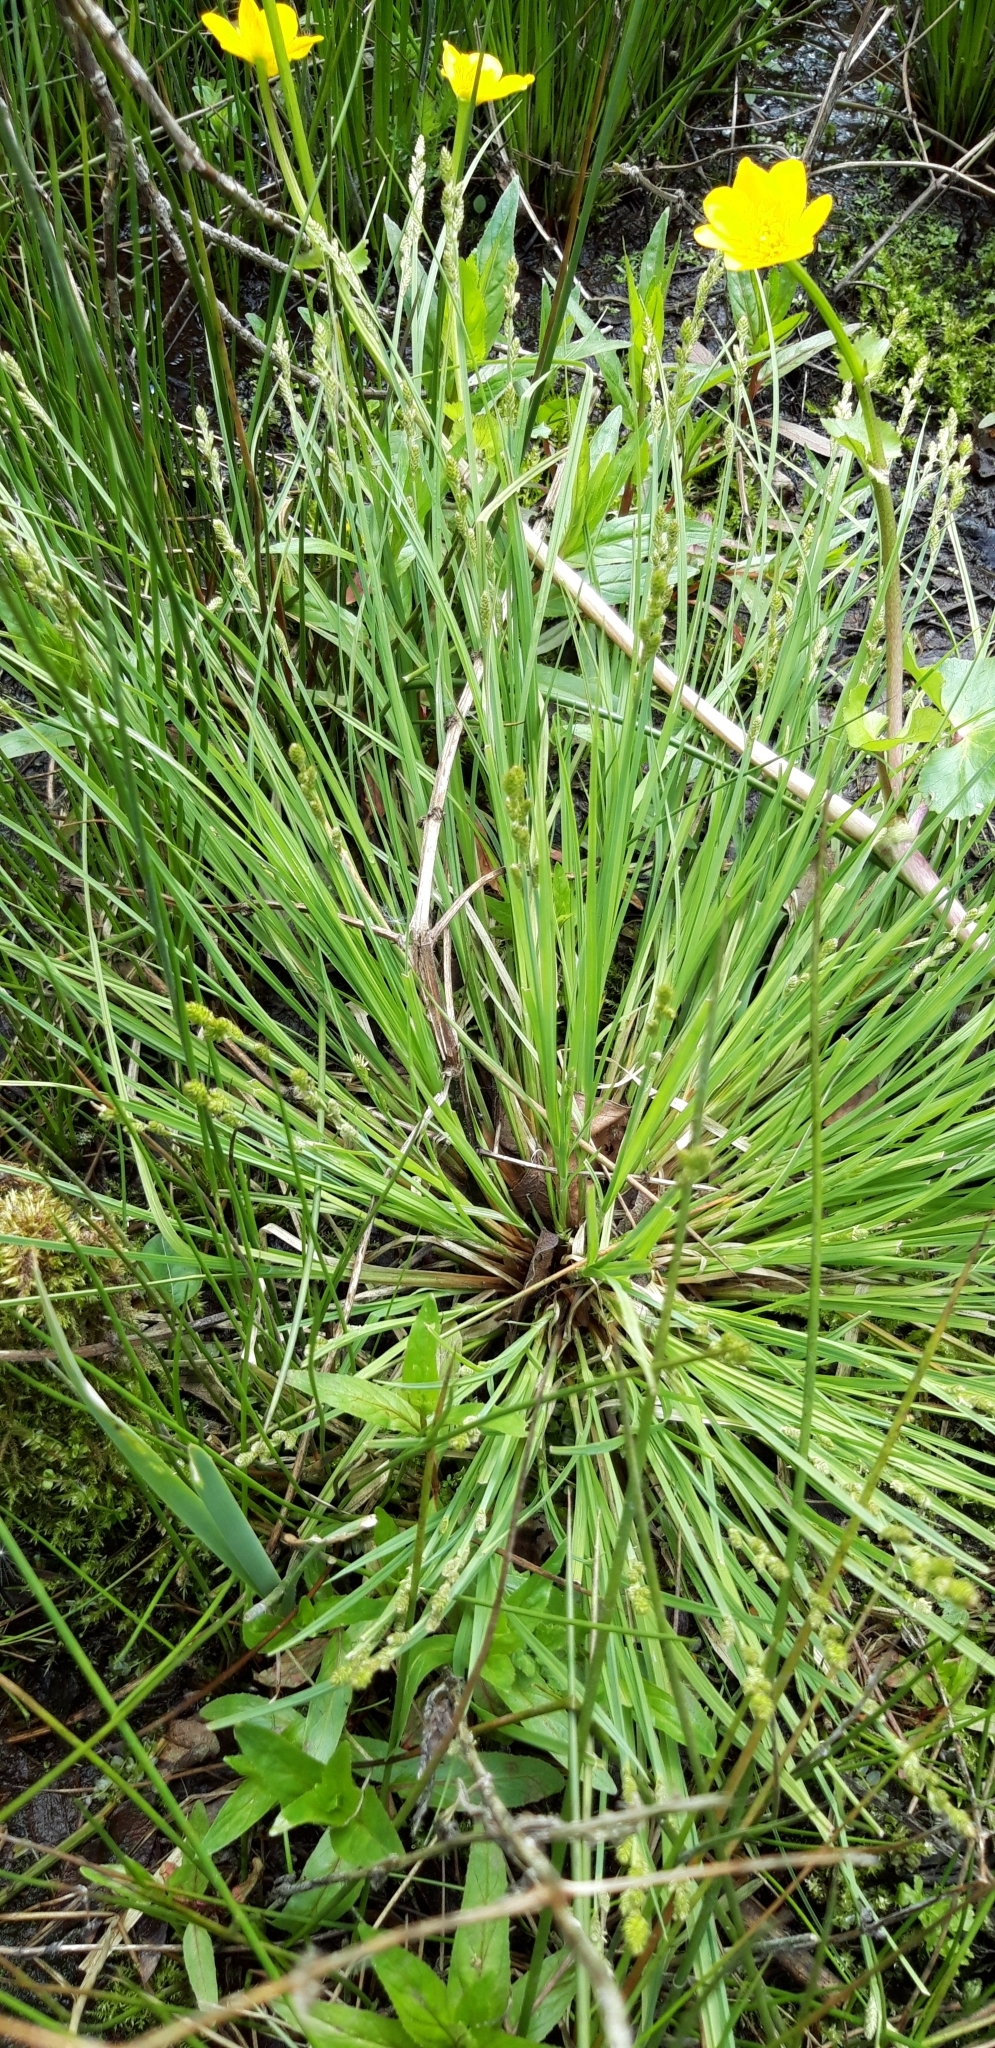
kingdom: Plantae
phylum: Tracheophyta
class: Liliopsida
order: Poales
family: Cyperaceae
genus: Carex
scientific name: Carex canescens
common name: White sedge
